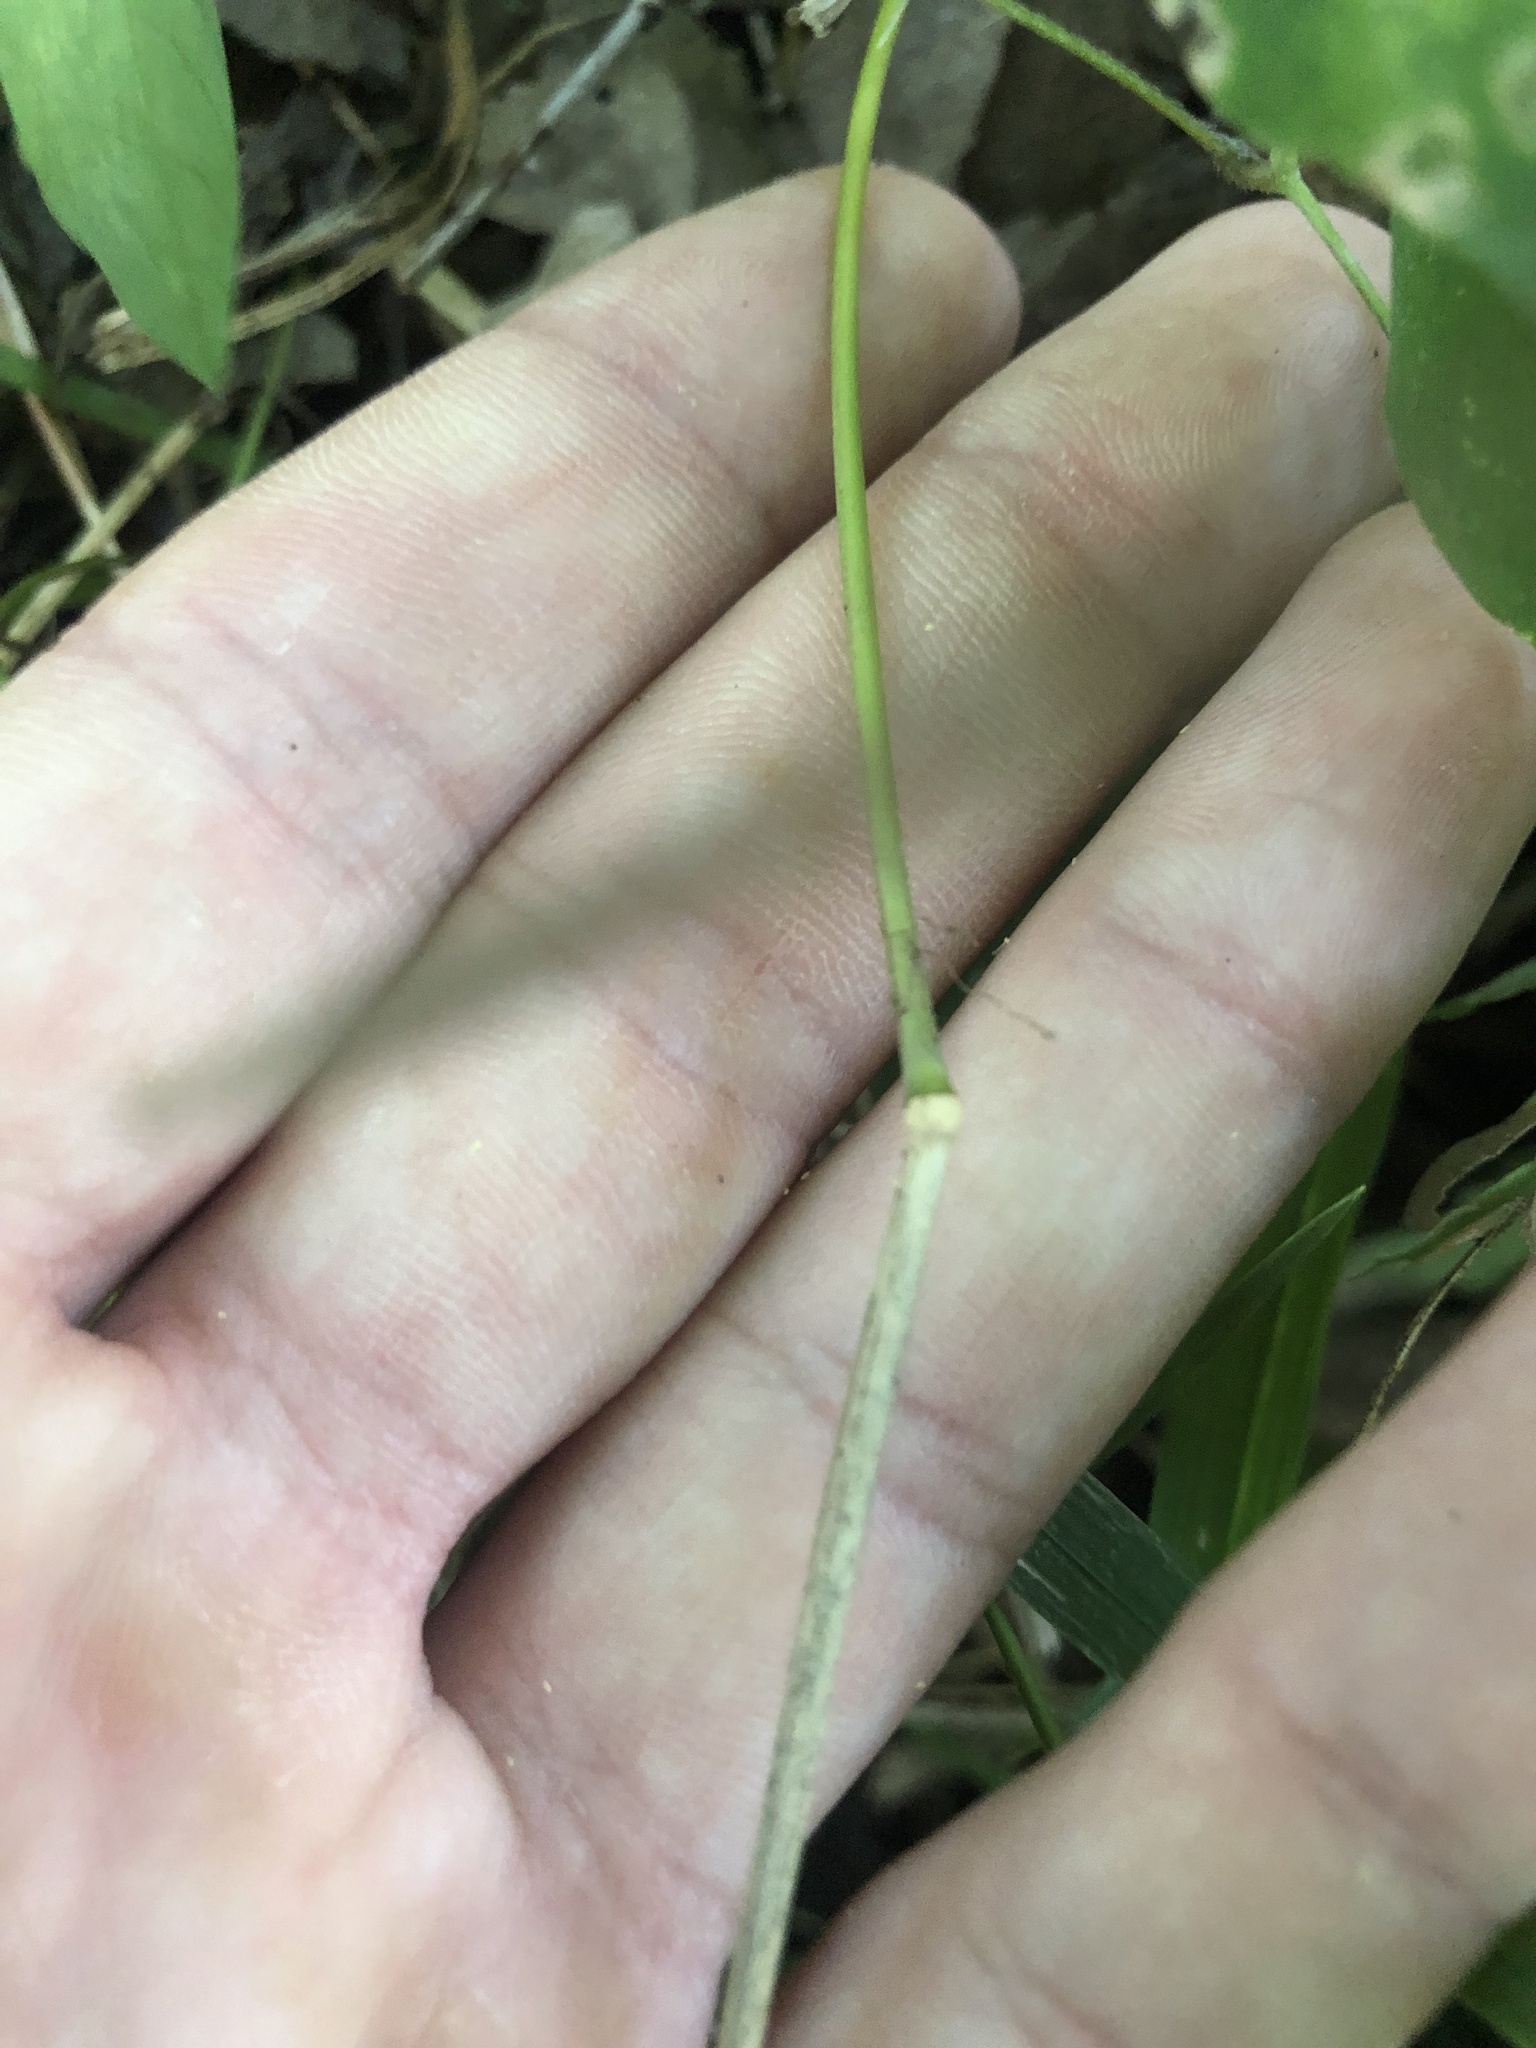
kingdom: Plantae
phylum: Tracheophyta
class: Liliopsida
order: Poales
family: Poaceae
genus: Muhlenbergia
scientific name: Muhlenbergia sylvatica
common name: Woodland muhly
